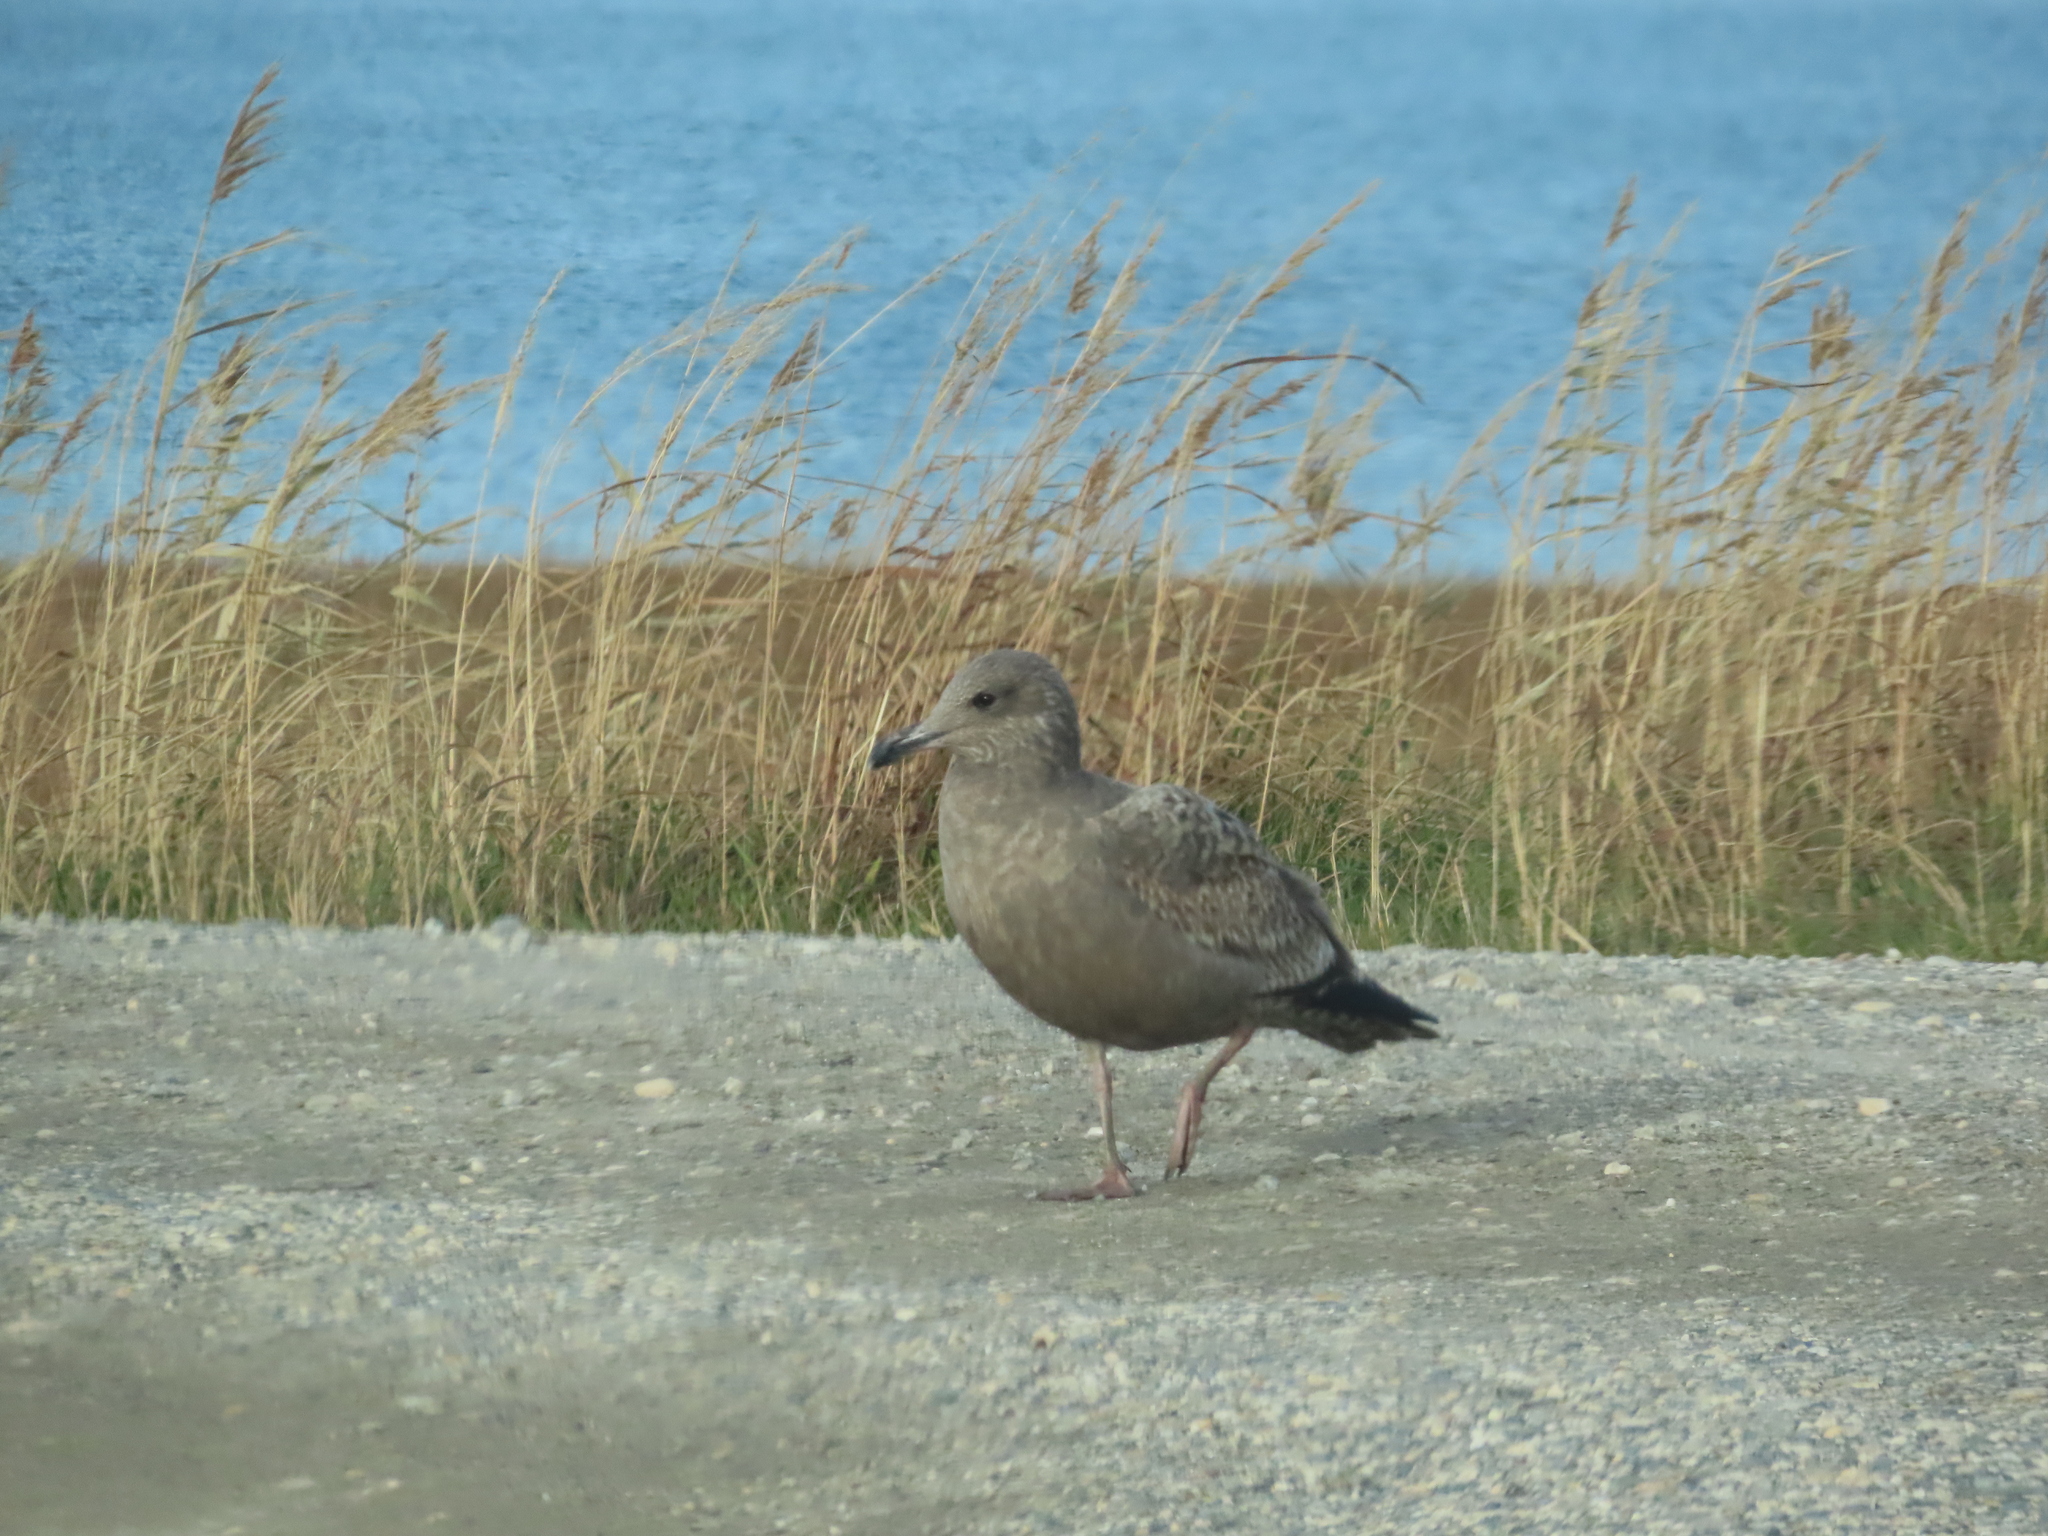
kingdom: Animalia
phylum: Chordata
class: Aves
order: Charadriiformes
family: Laridae
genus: Larus
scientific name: Larus argentatus
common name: Herring gull
